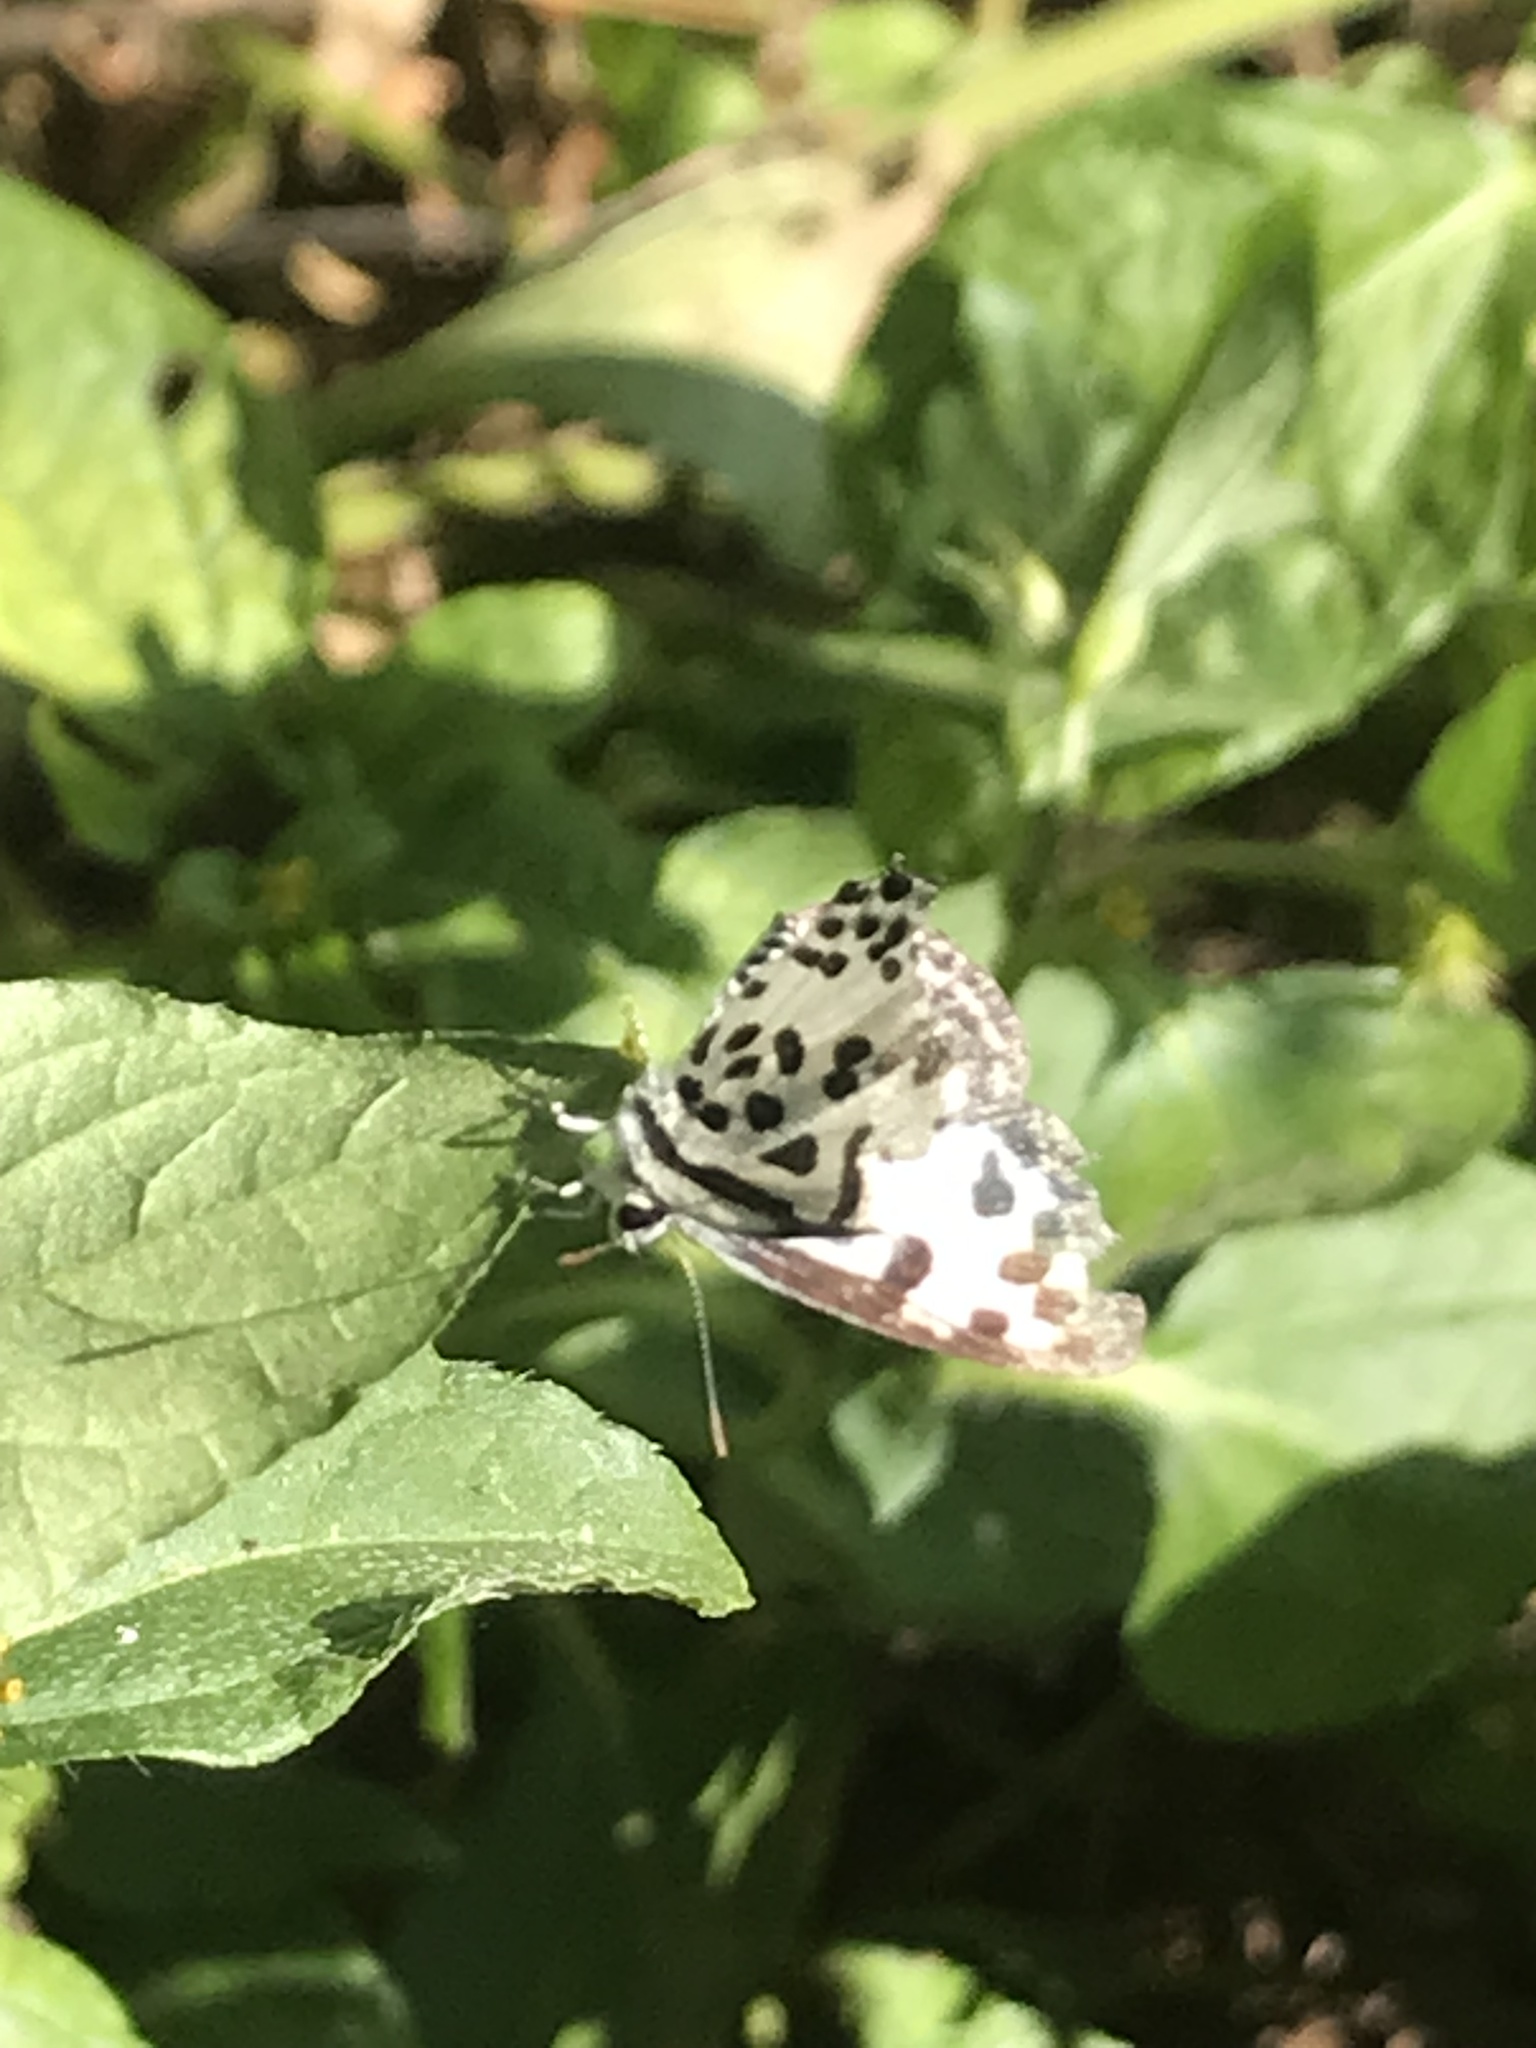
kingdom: Animalia
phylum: Arthropoda
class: Insecta
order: Lepidoptera
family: Lycaenidae
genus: Castalius
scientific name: Castalius rosimon
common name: Common pierrot
